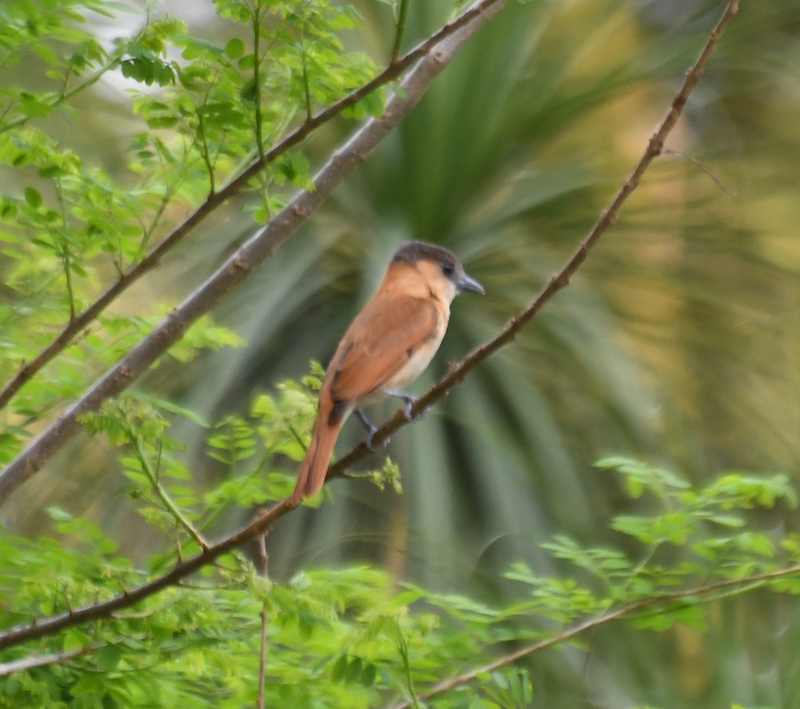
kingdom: Animalia
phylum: Chordata
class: Aves
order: Passeriformes
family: Cotingidae
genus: Pachyramphus
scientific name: Pachyramphus aglaiae
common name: Rose-throated becard
